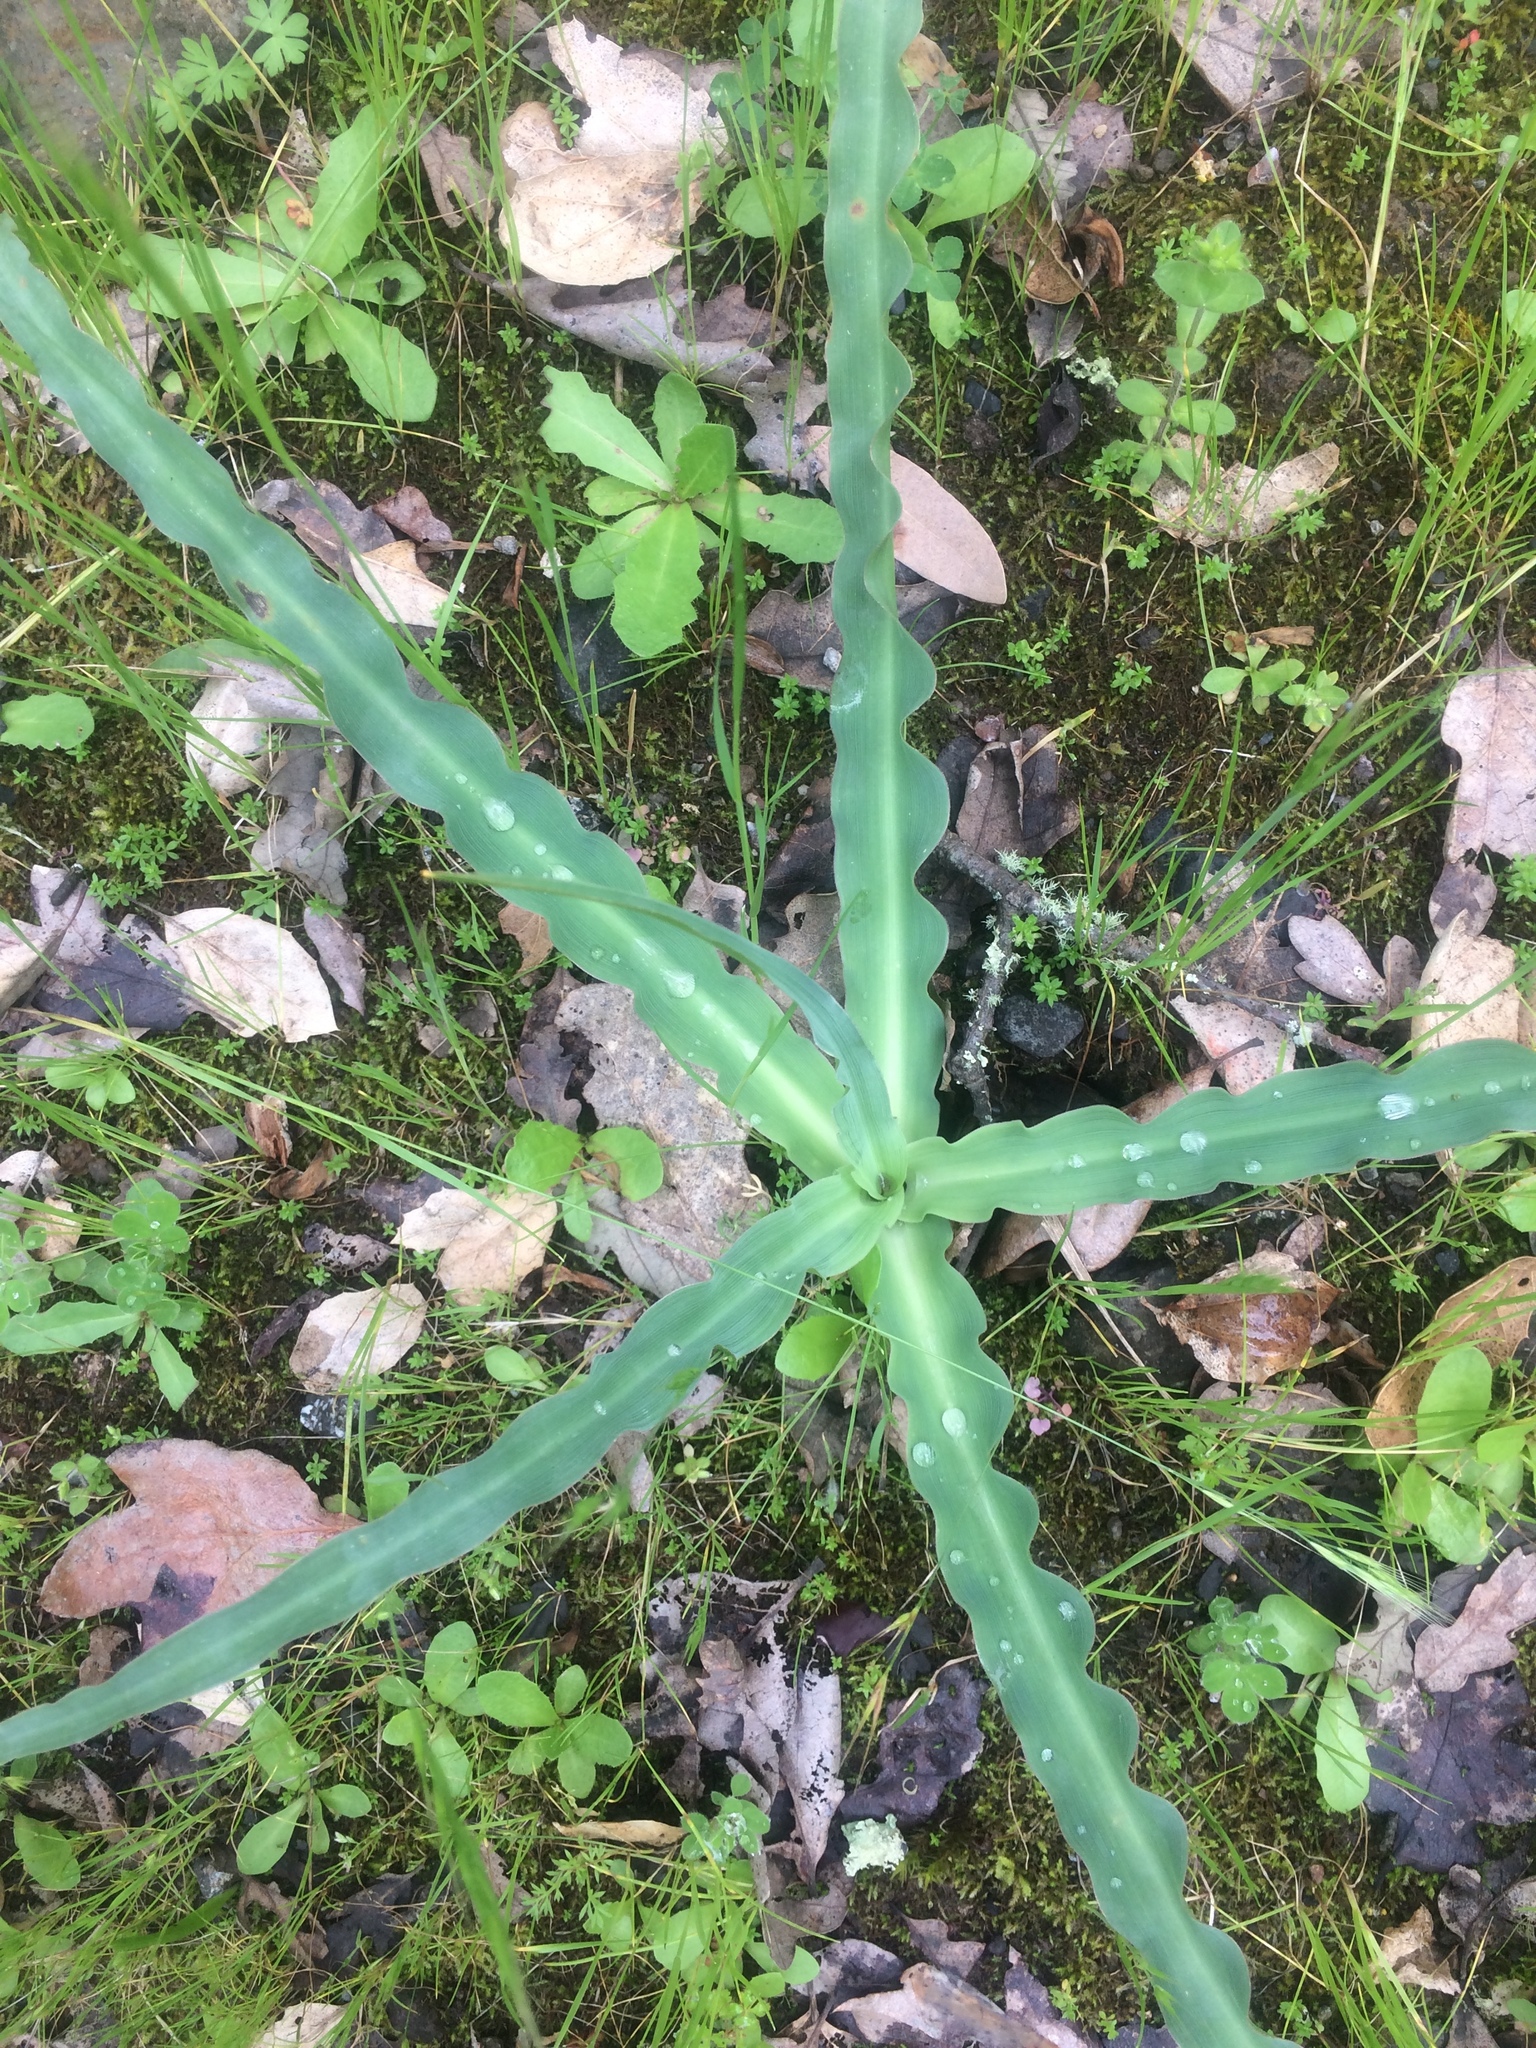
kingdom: Plantae
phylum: Tracheophyta
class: Liliopsida
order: Asparagales
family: Asparagaceae
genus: Chlorogalum
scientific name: Chlorogalum pomeridianum
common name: Amole
